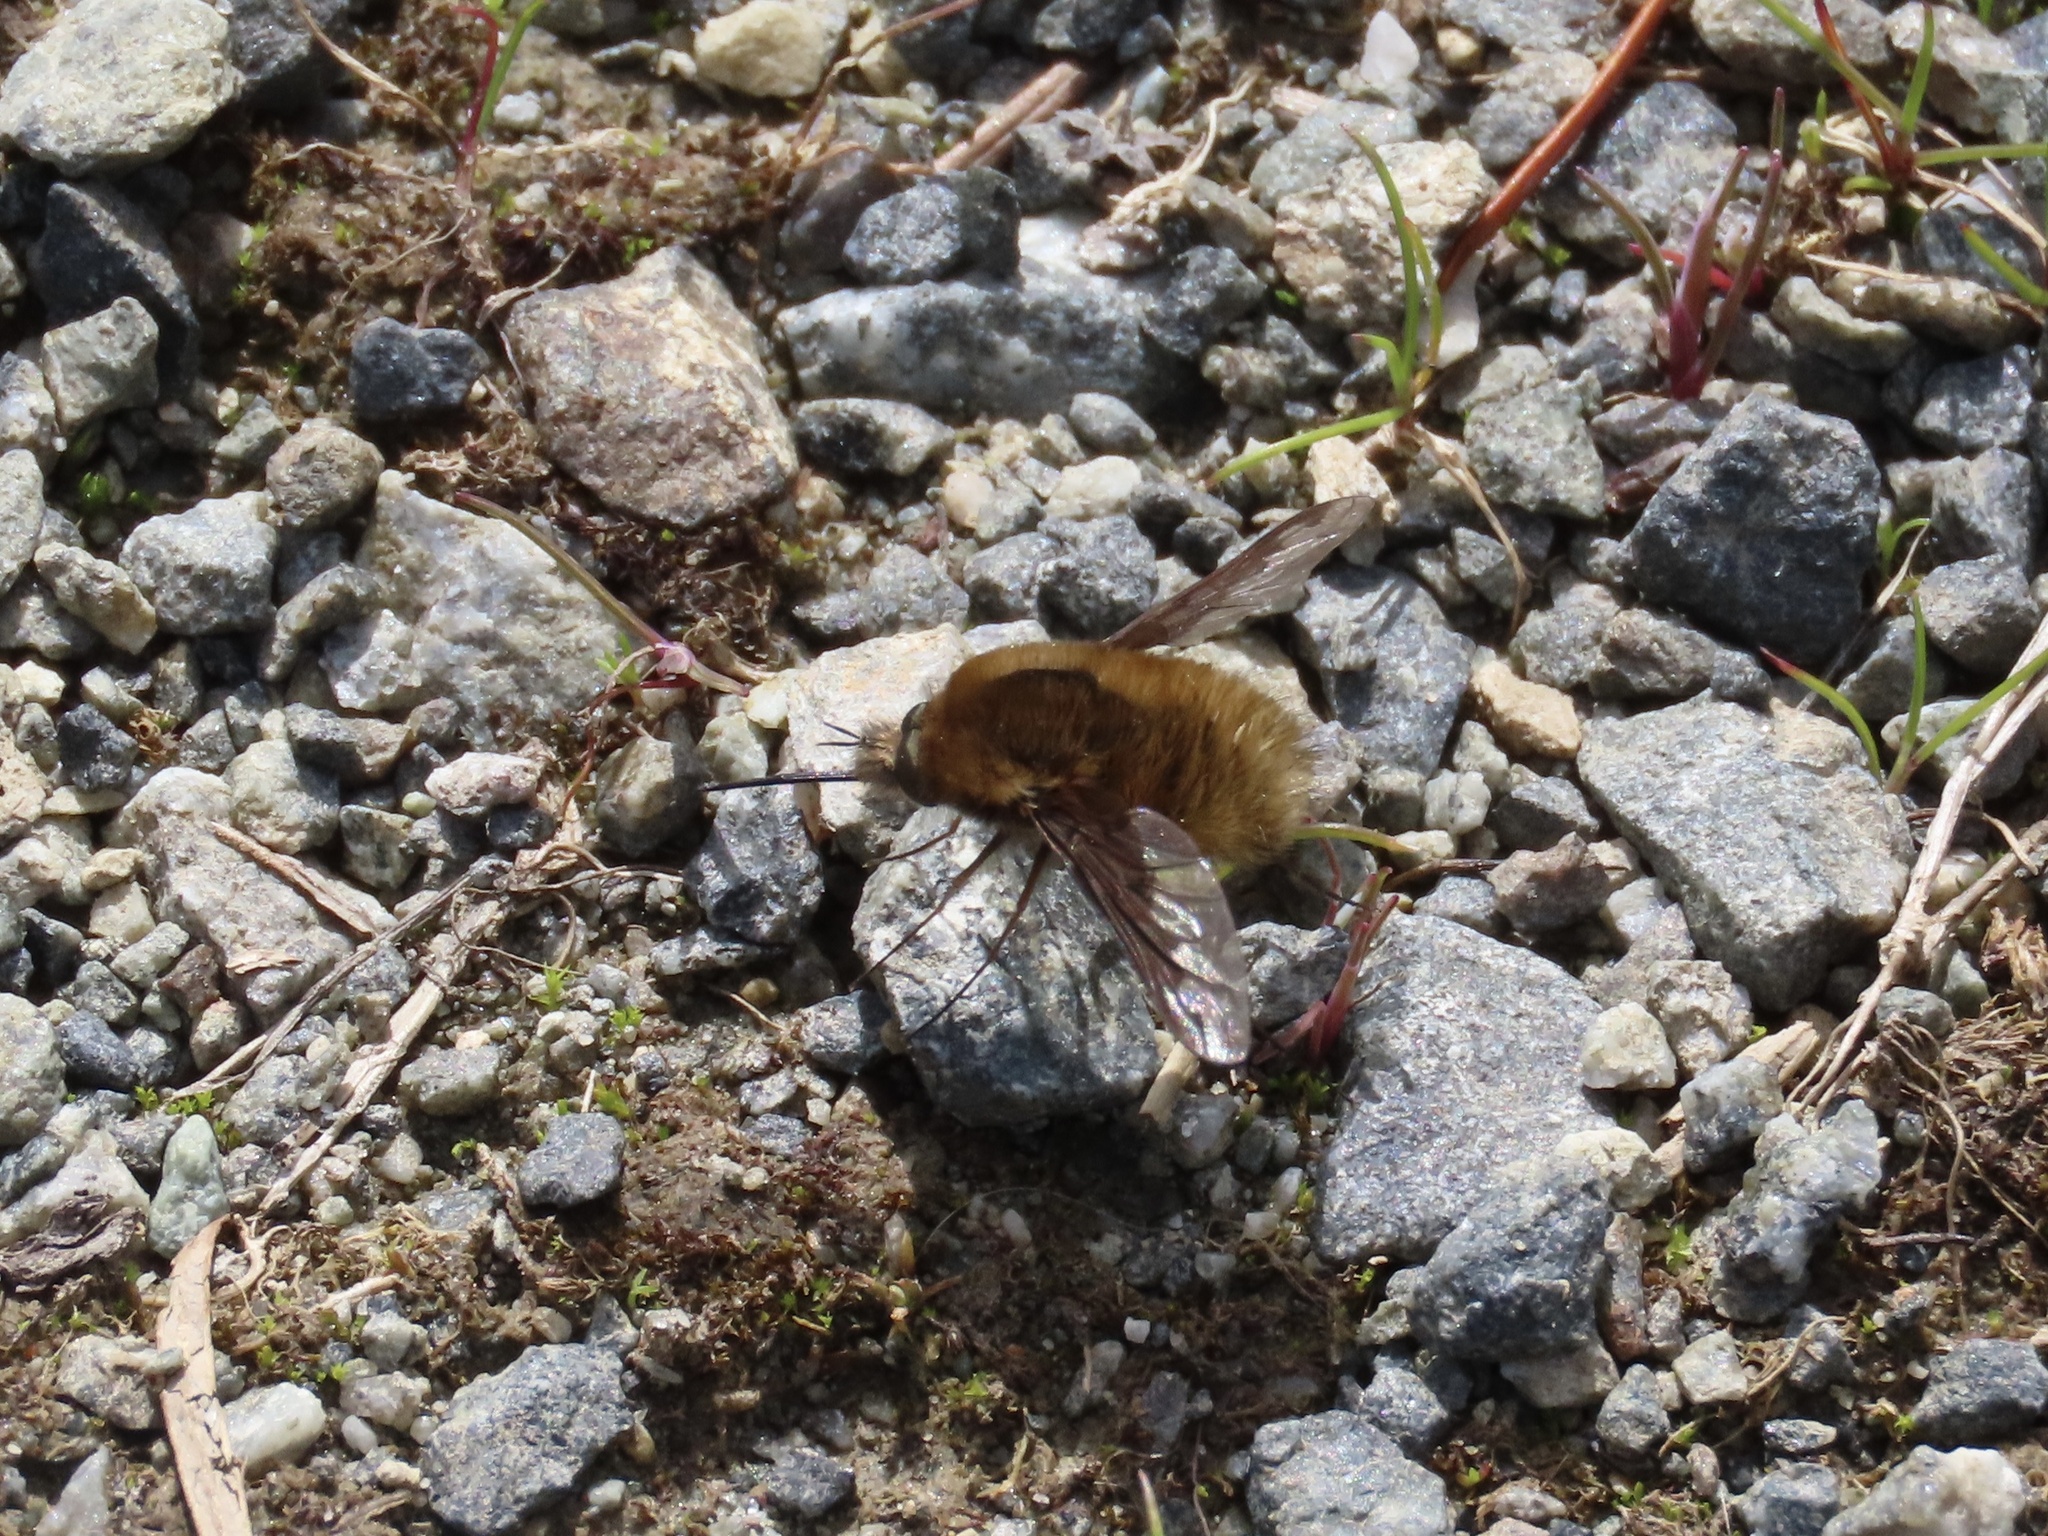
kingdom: Animalia
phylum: Arthropoda
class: Insecta
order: Diptera
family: Bombyliidae
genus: Bombylius
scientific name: Bombylius major
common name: Bee fly
